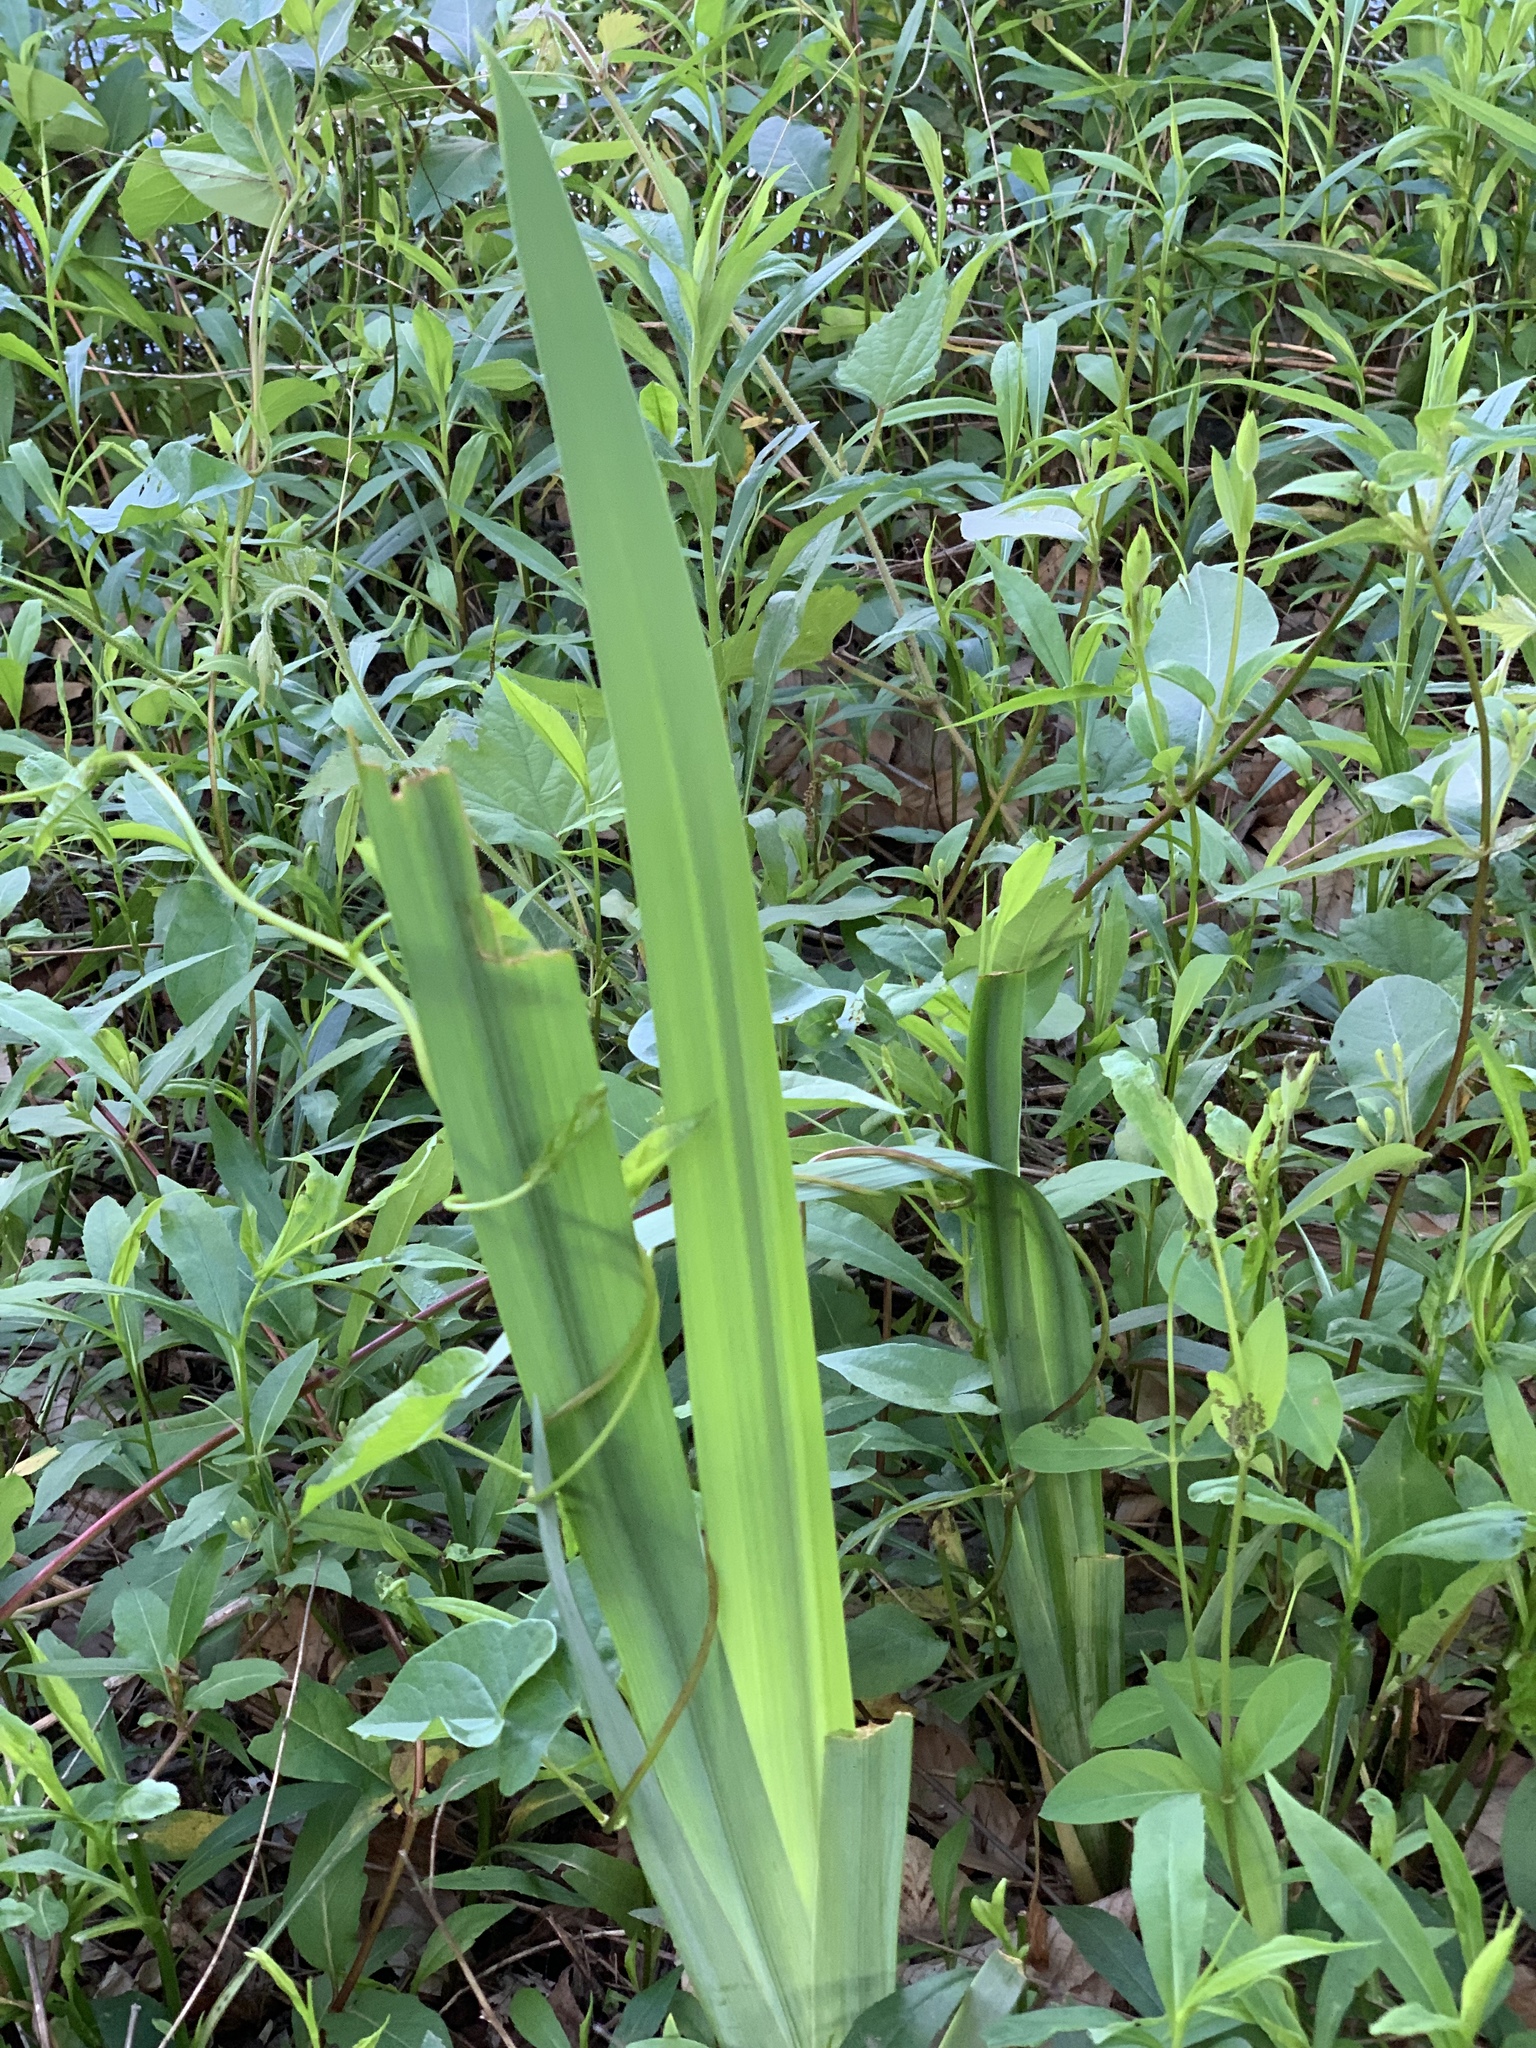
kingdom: Plantae
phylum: Tracheophyta
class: Liliopsida
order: Asparagales
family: Iridaceae
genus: Iris
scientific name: Iris pseudacorus
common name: Yellow flag
